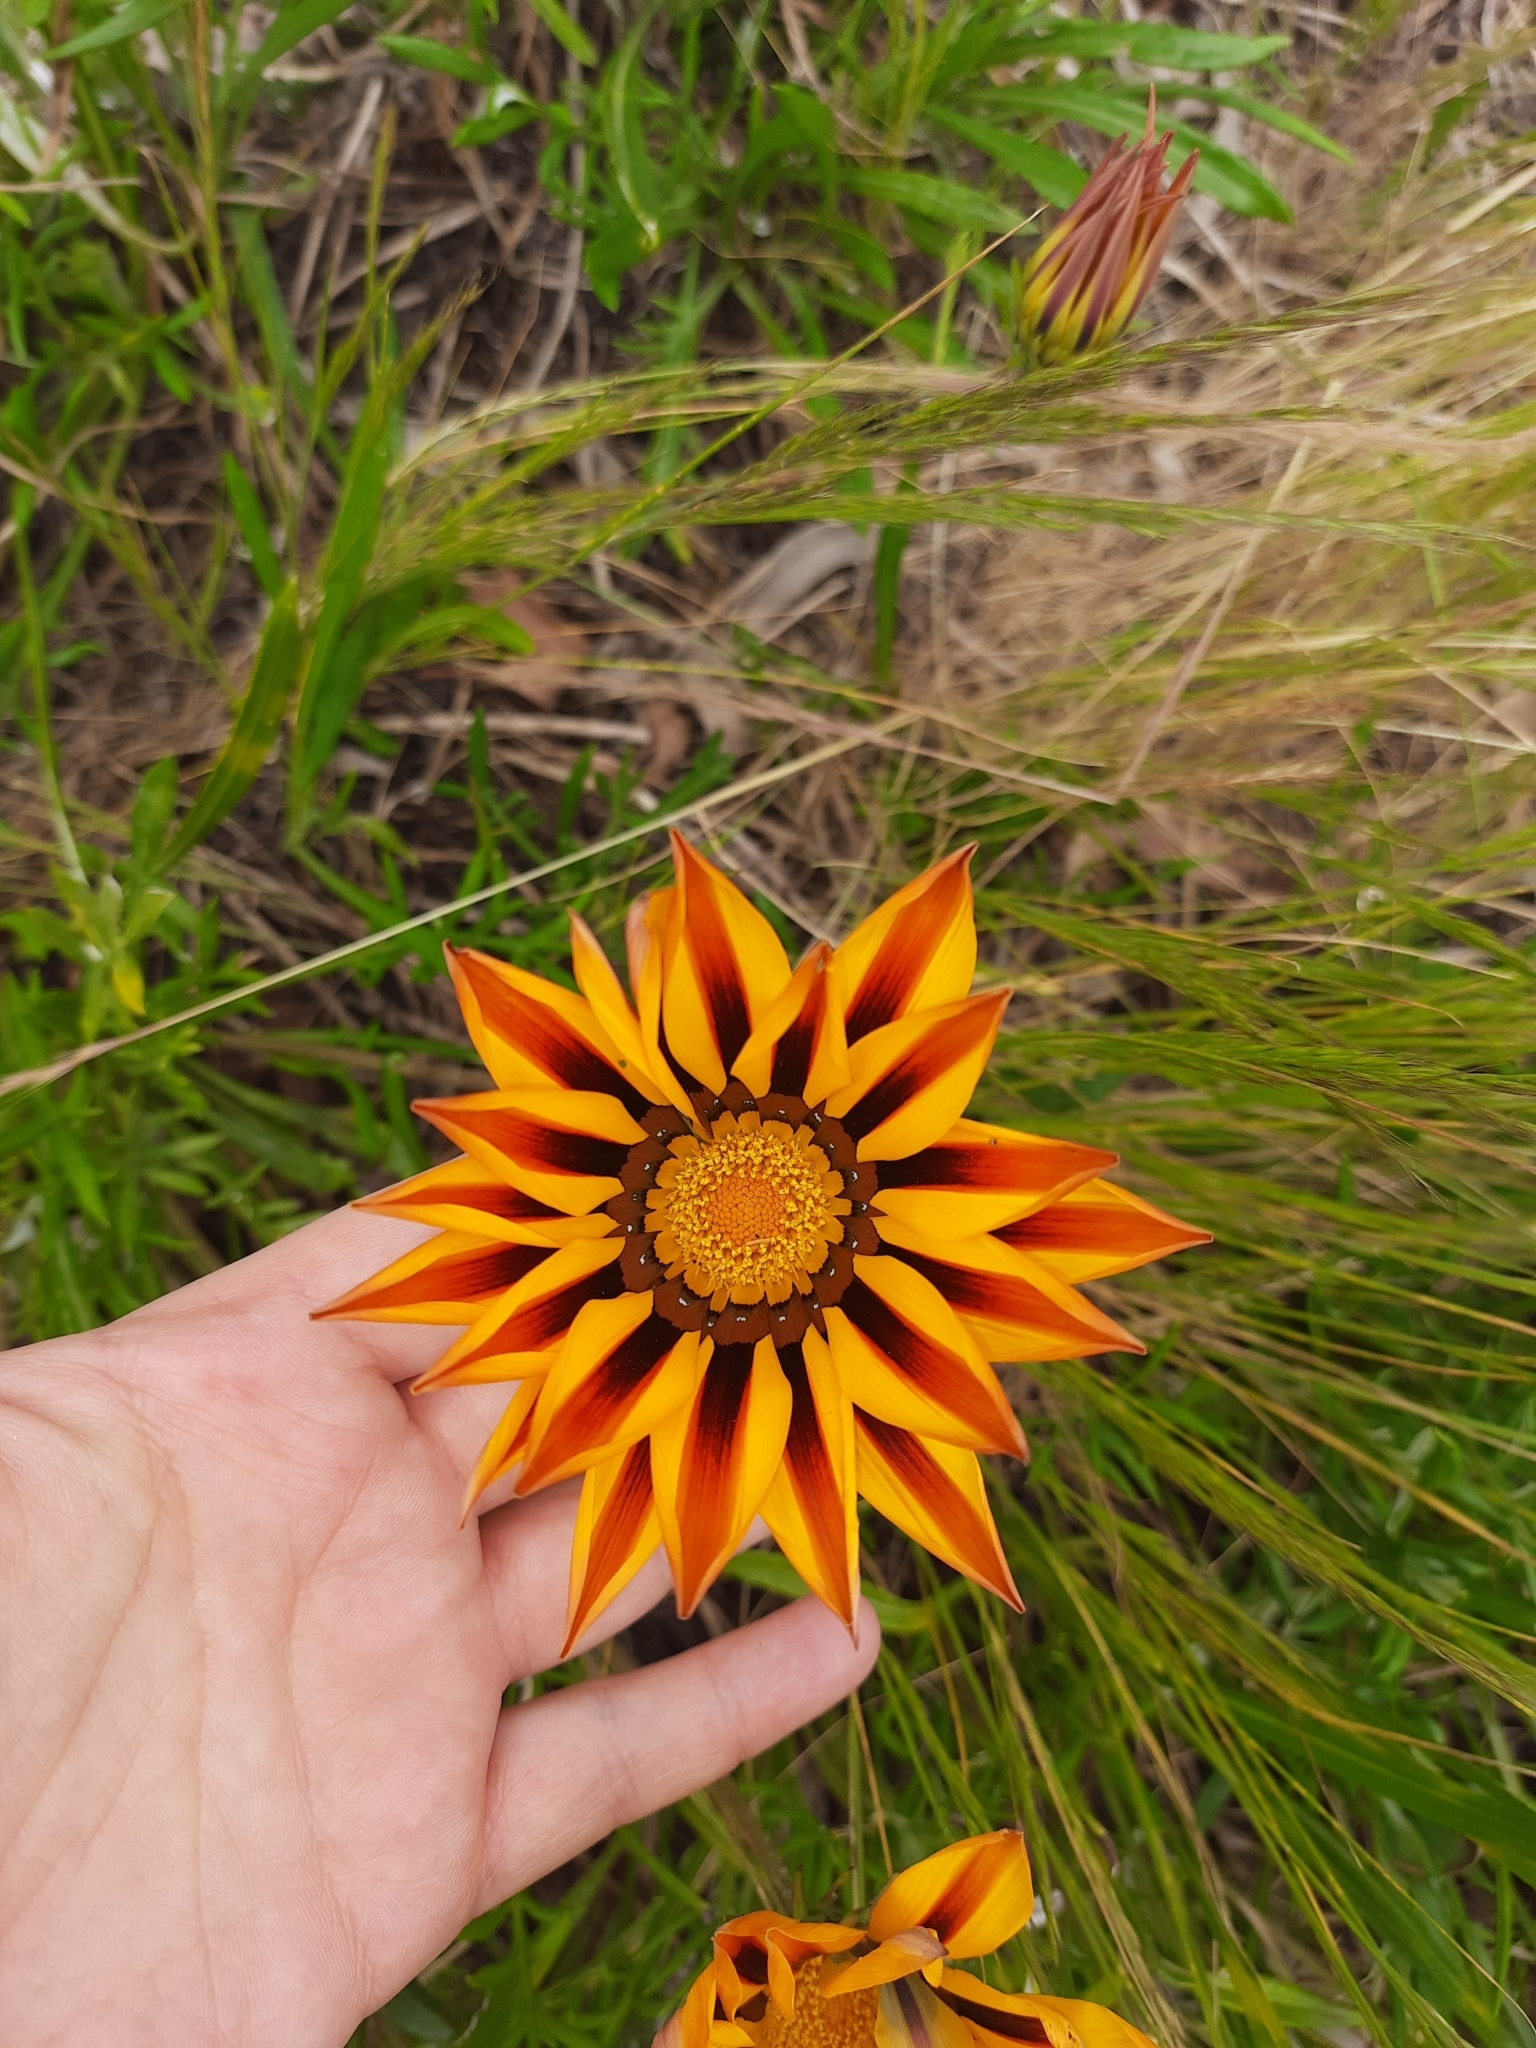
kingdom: Plantae
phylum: Tracheophyta
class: Magnoliopsida
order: Asterales
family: Asteraceae
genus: Gazania
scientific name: Gazania splendens
